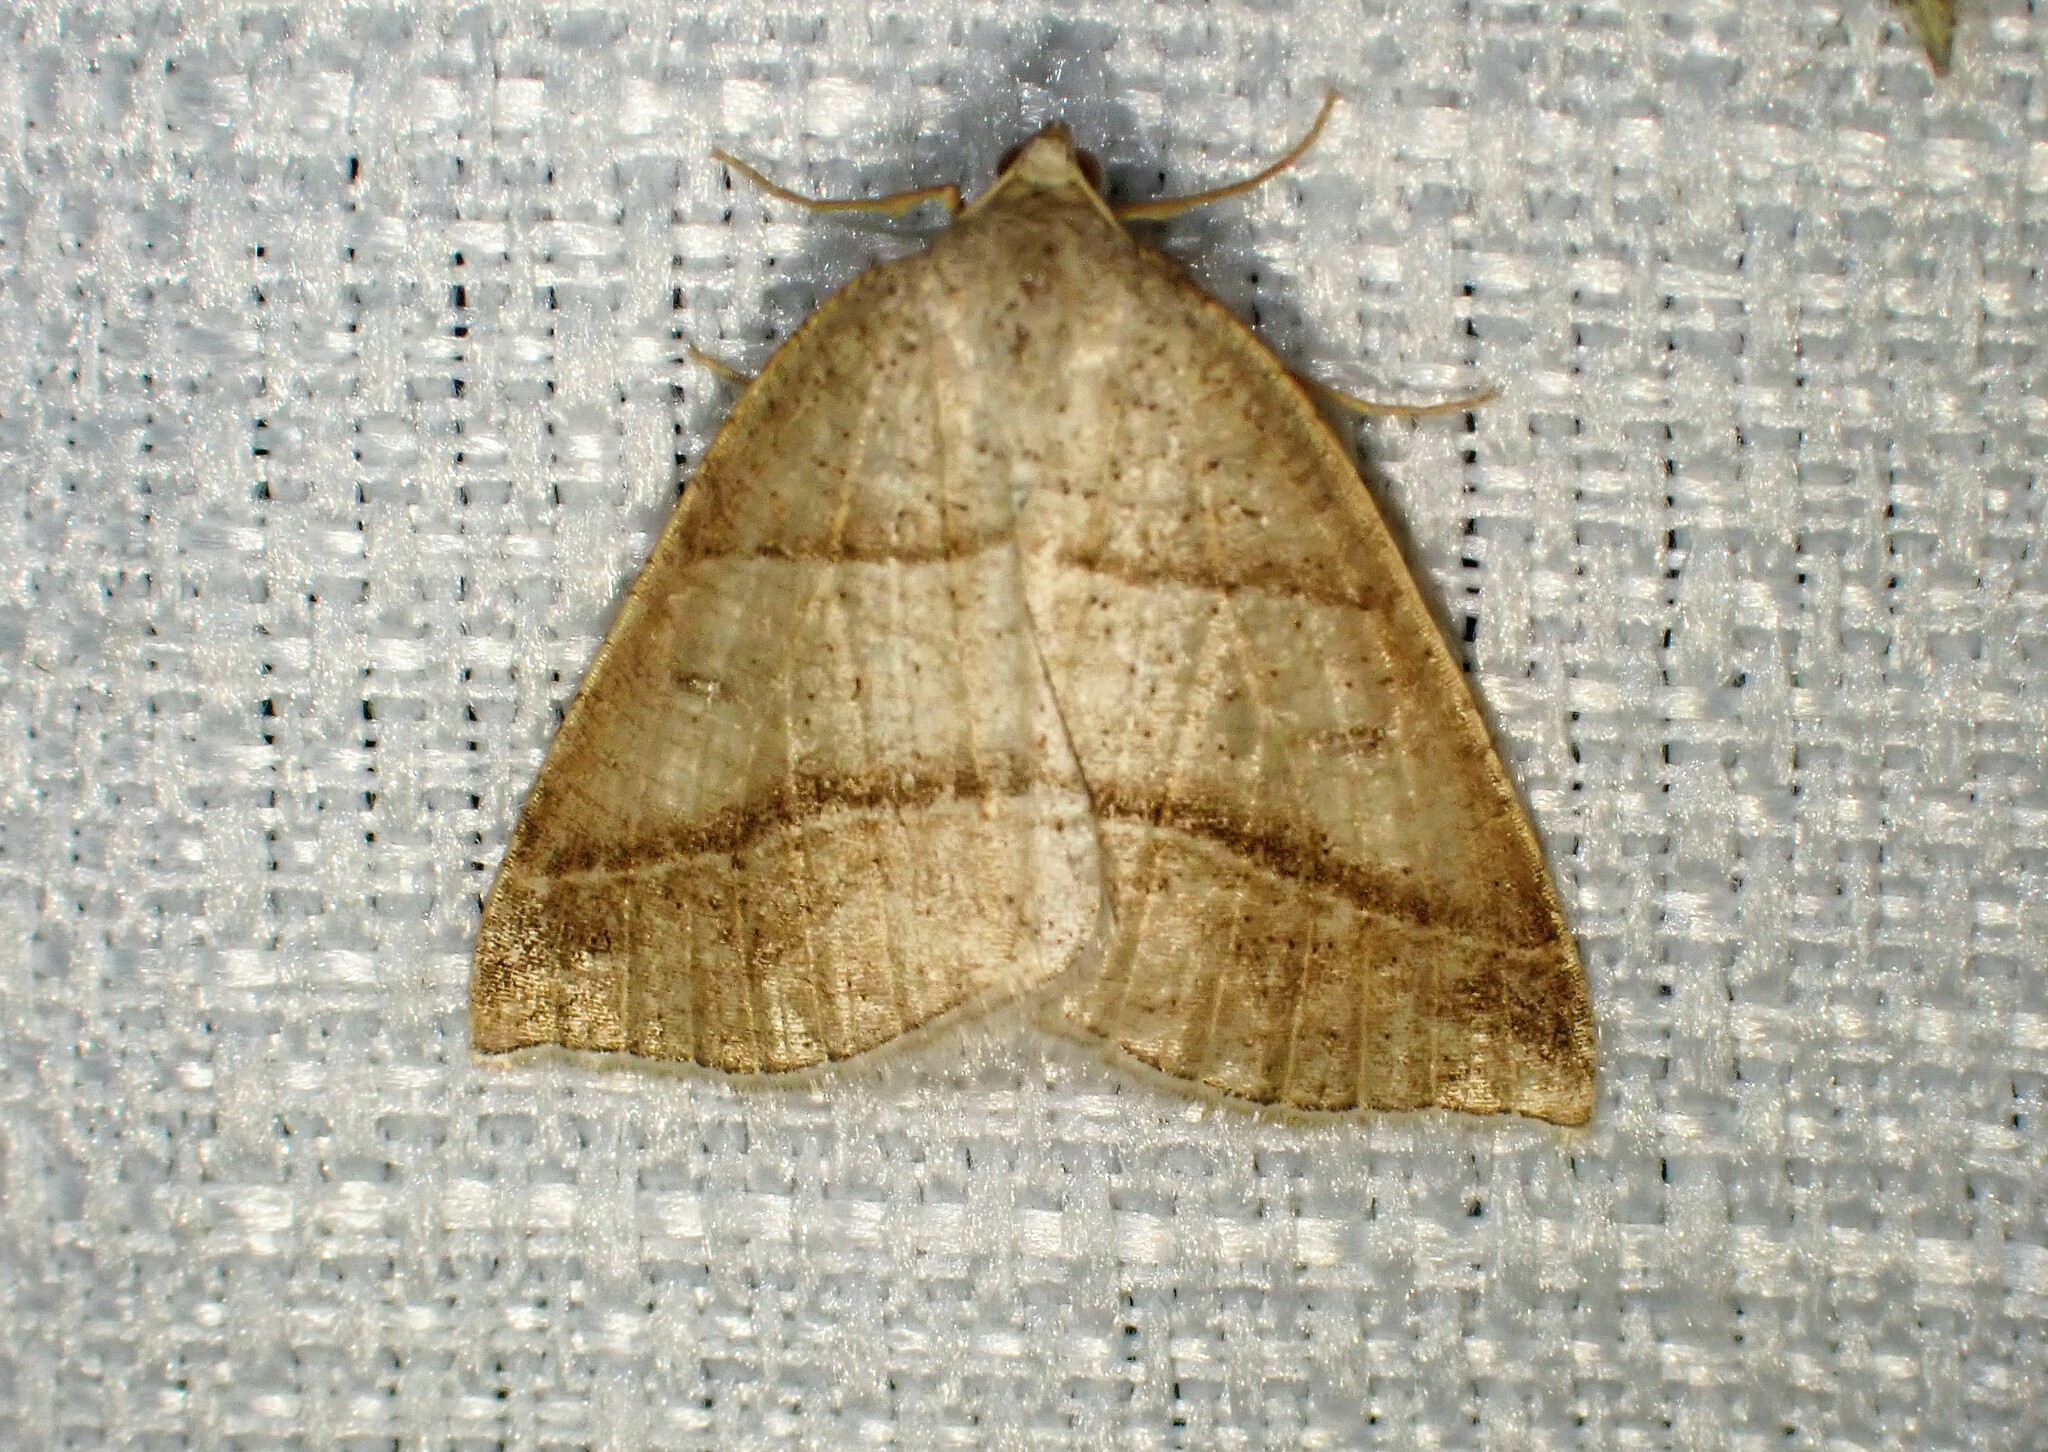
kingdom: Animalia
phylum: Arthropoda
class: Insecta
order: Lepidoptera
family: Pterophoridae
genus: Pterophorus
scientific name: Pterophorus Petrophora subaequaria
